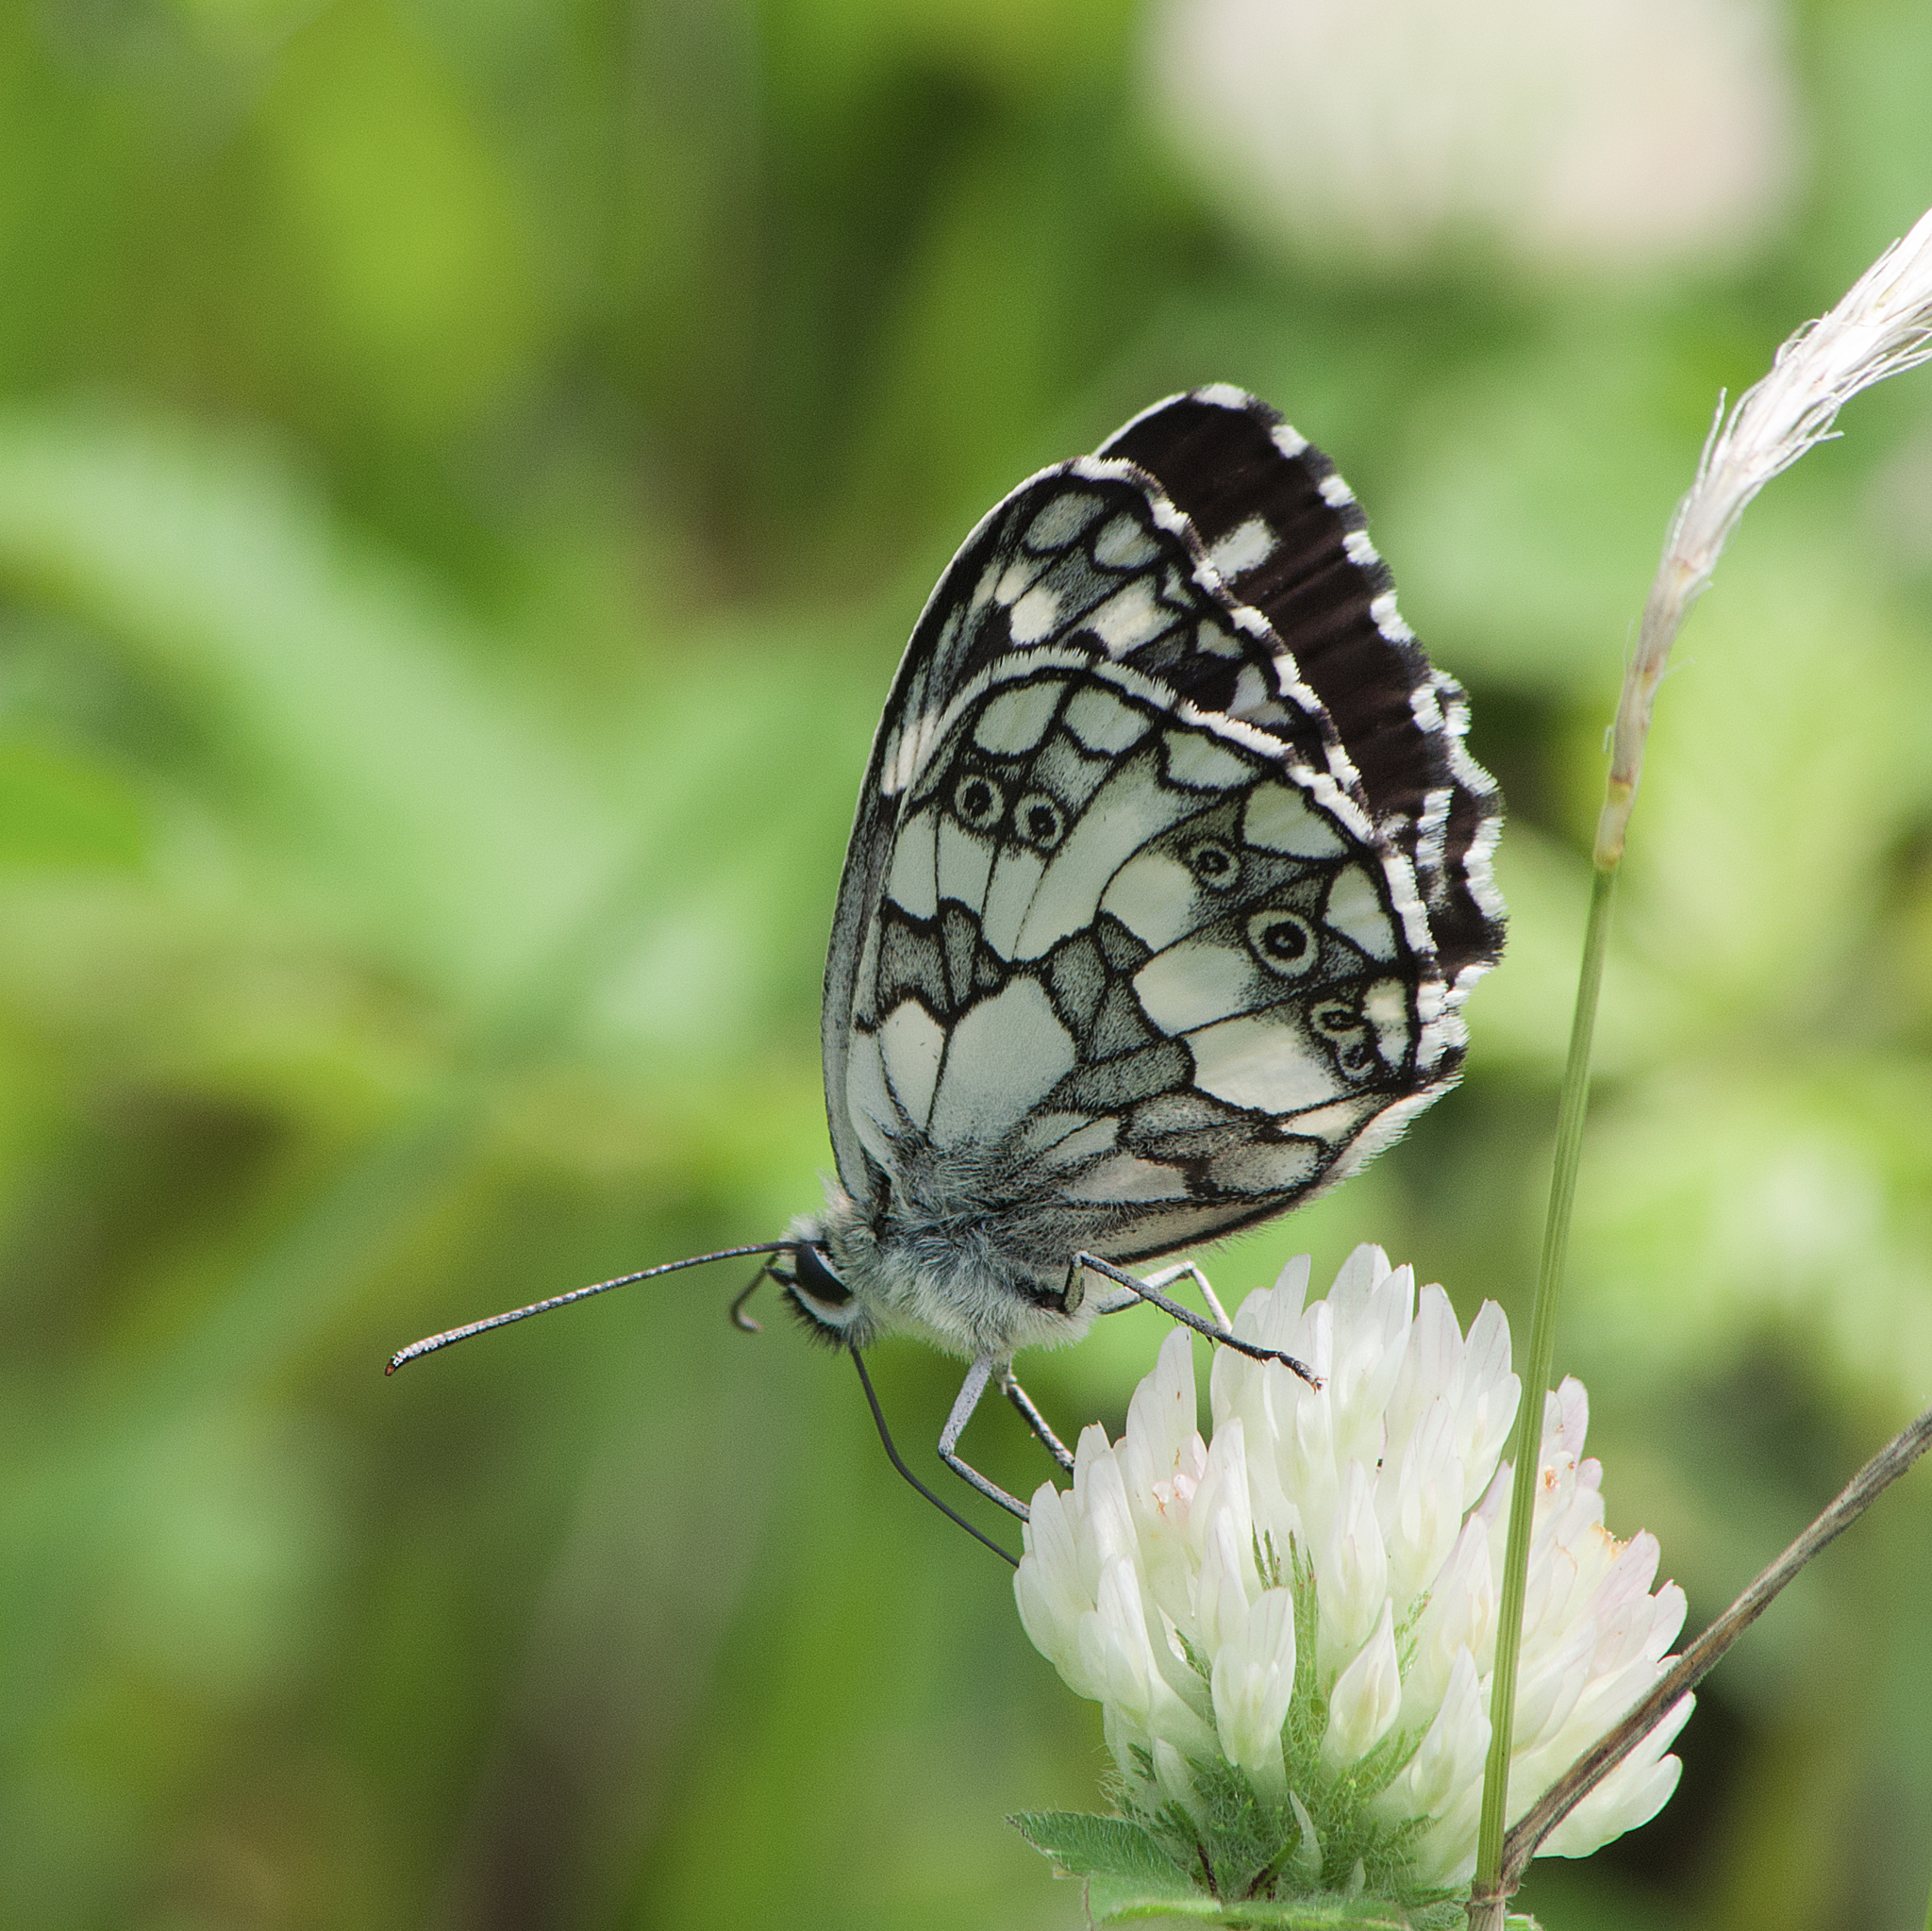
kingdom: Animalia
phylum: Arthropoda
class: Insecta
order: Lepidoptera
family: Nymphalidae
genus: Melanargia
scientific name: Melanargia galathea
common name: Marbled white
